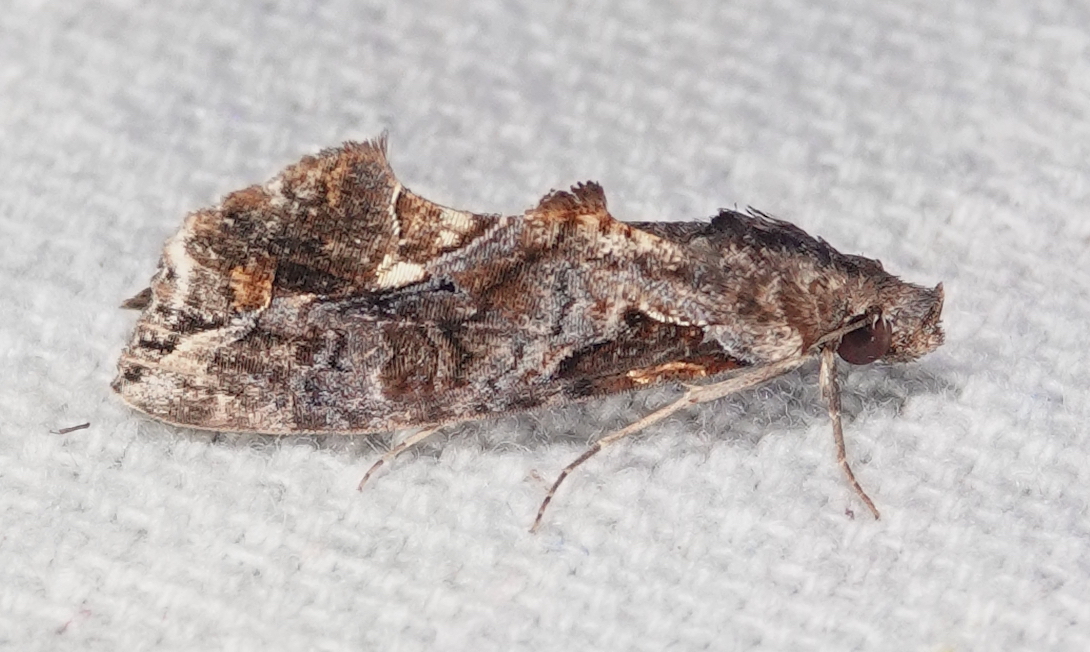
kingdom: Animalia
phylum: Arthropoda
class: Insecta
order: Lepidoptera
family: Erebidae
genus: Plusiodonta
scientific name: Plusiodonta clavifera
